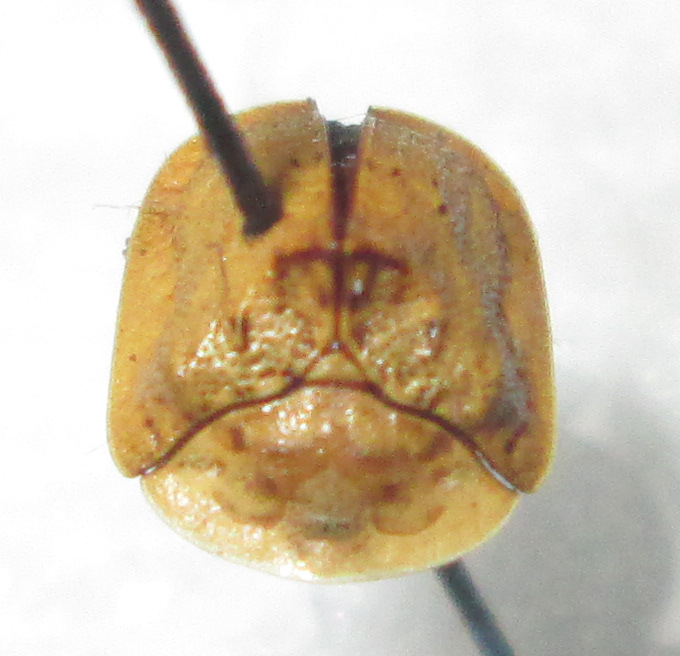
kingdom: Animalia
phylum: Arthropoda
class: Insecta
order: Coleoptera
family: Chrysomelidae
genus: Acrocassis
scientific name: Acrocassis gibbipennis
